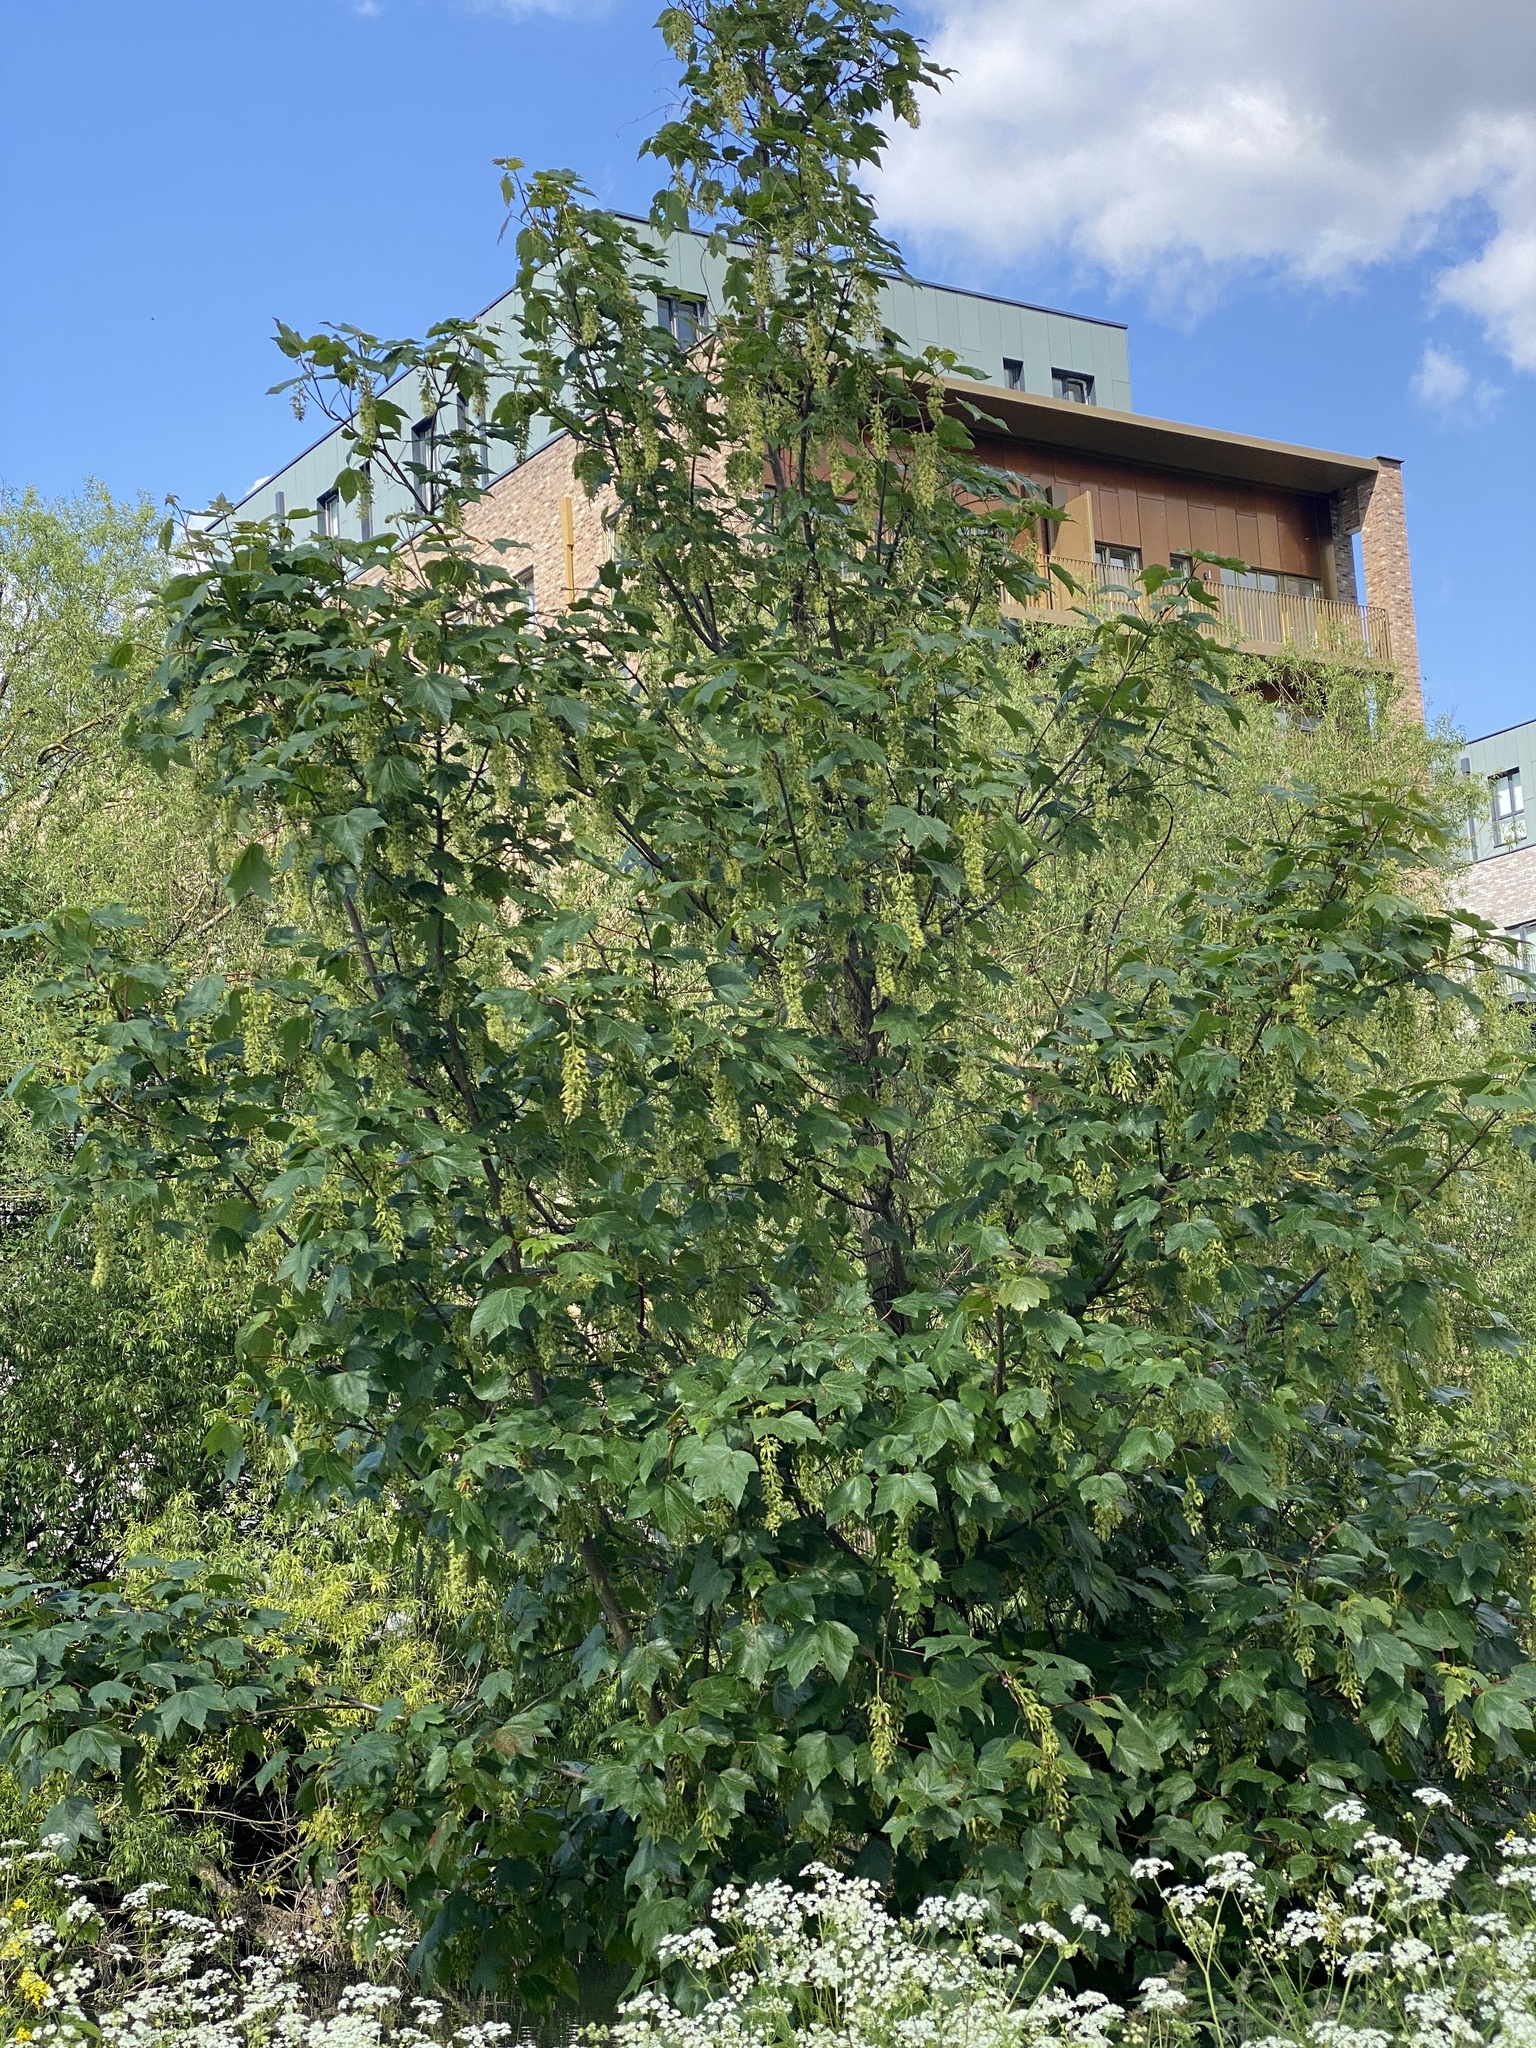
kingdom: Plantae
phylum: Tracheophyta
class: Magnoliopsida
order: Sapindales
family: Sapindaceae
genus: Acer
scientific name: Acer pseudoplatanus
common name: Sycamore
